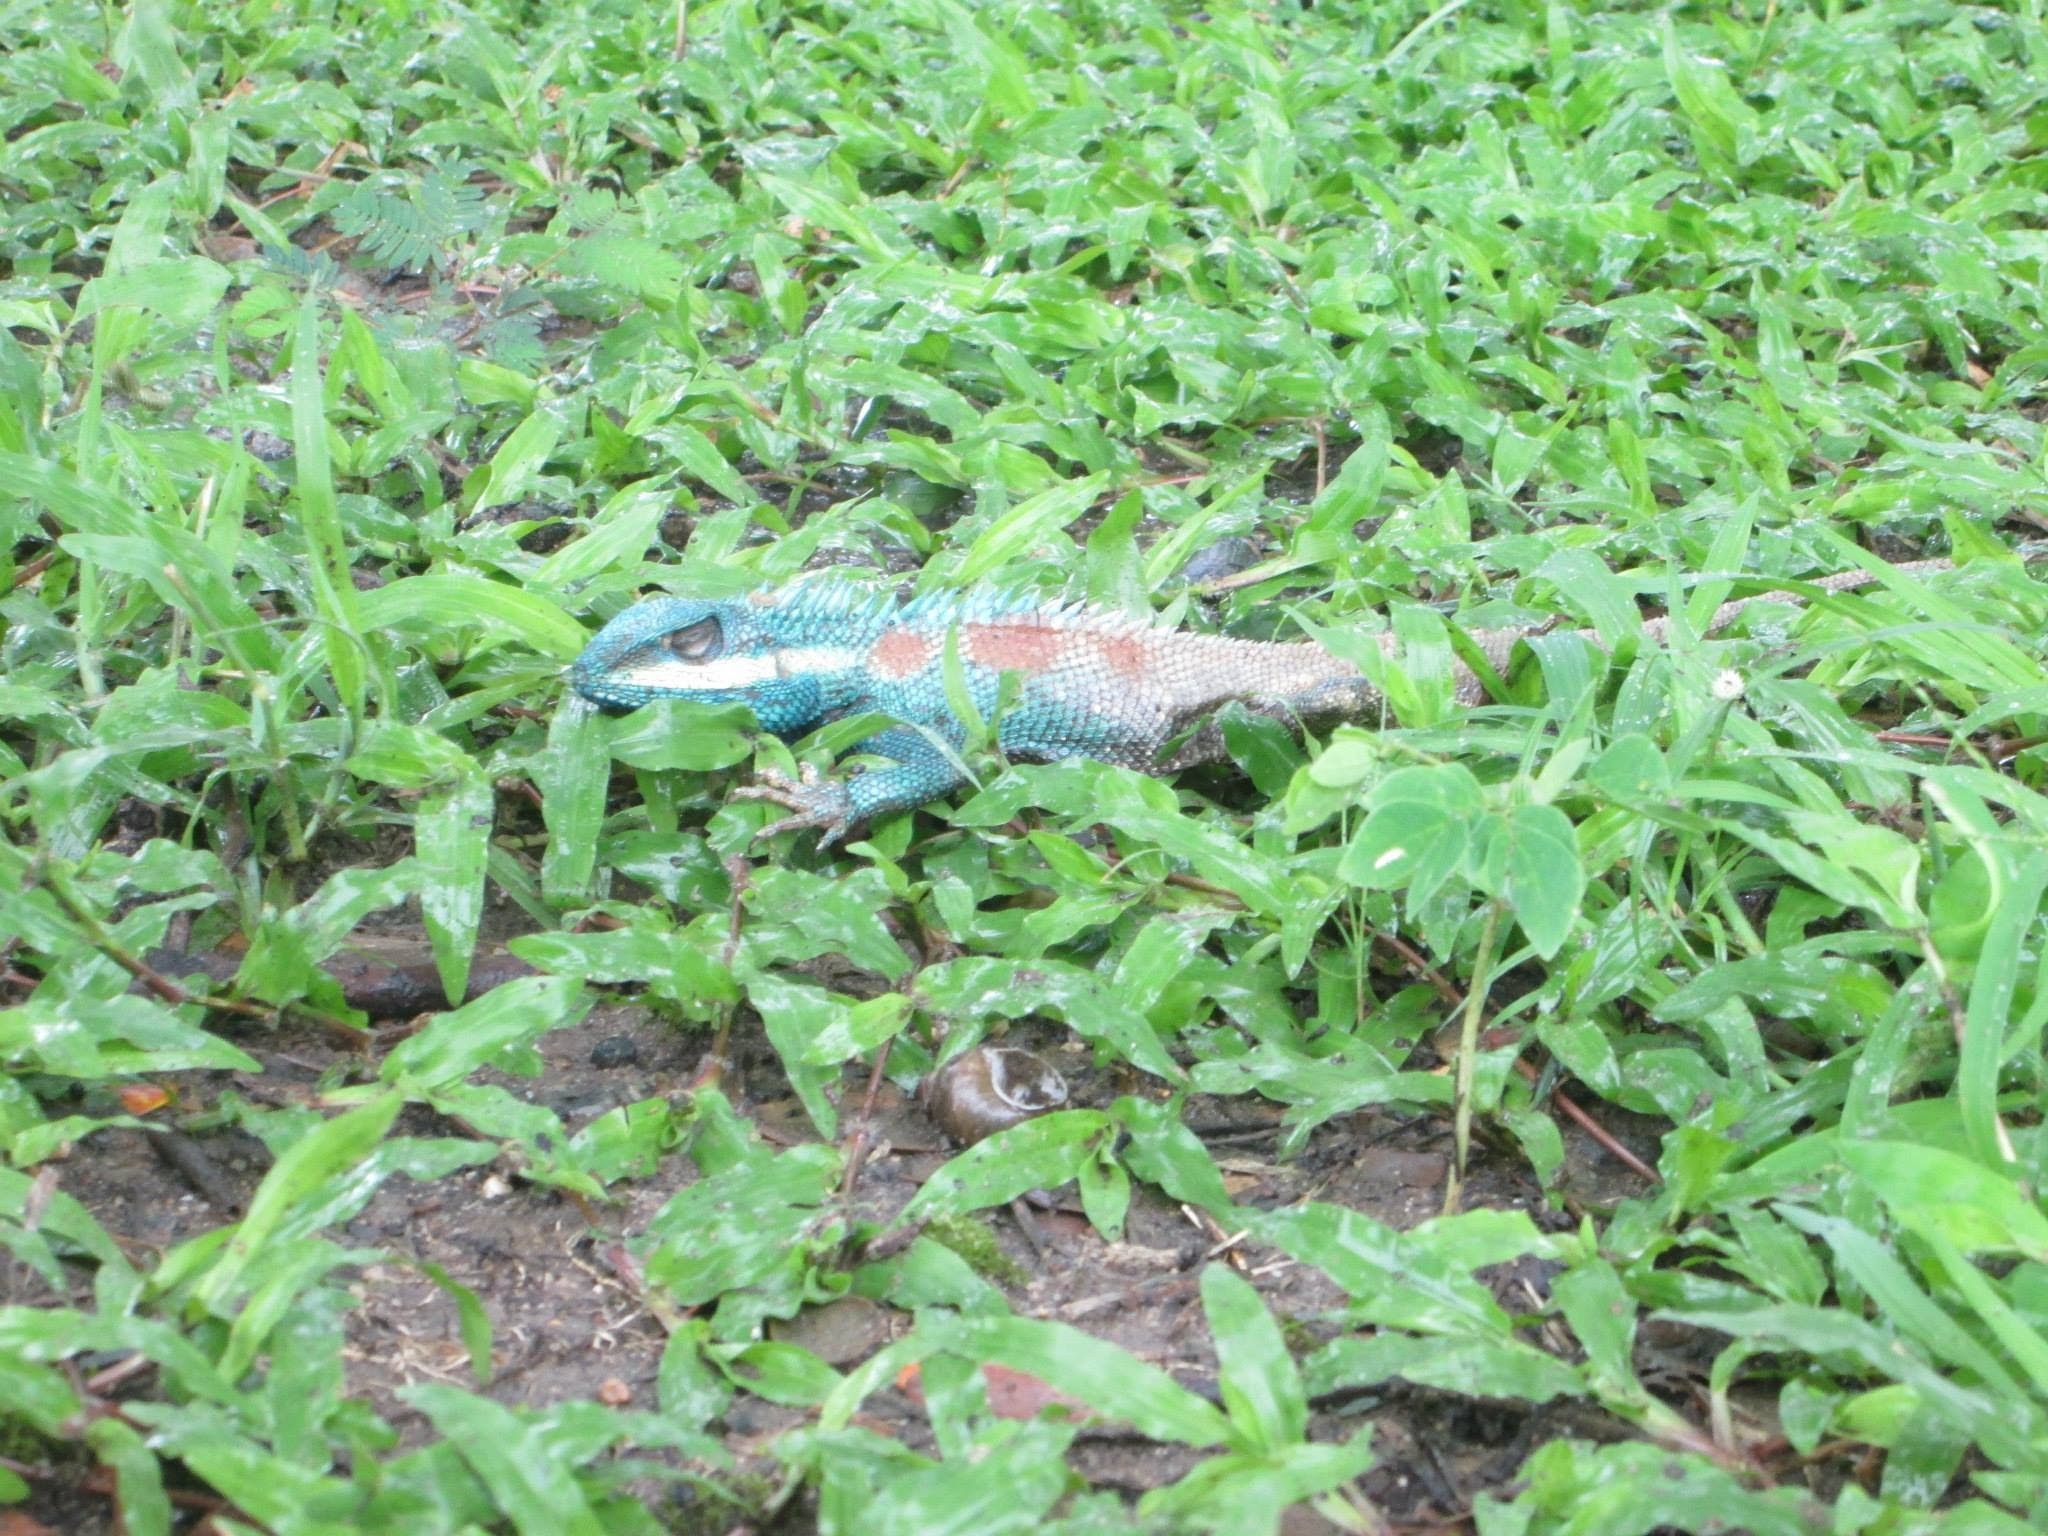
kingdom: Animalia
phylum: Chordata
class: Squamata
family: Agamidae
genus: Calotes
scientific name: Calotes goetzi
